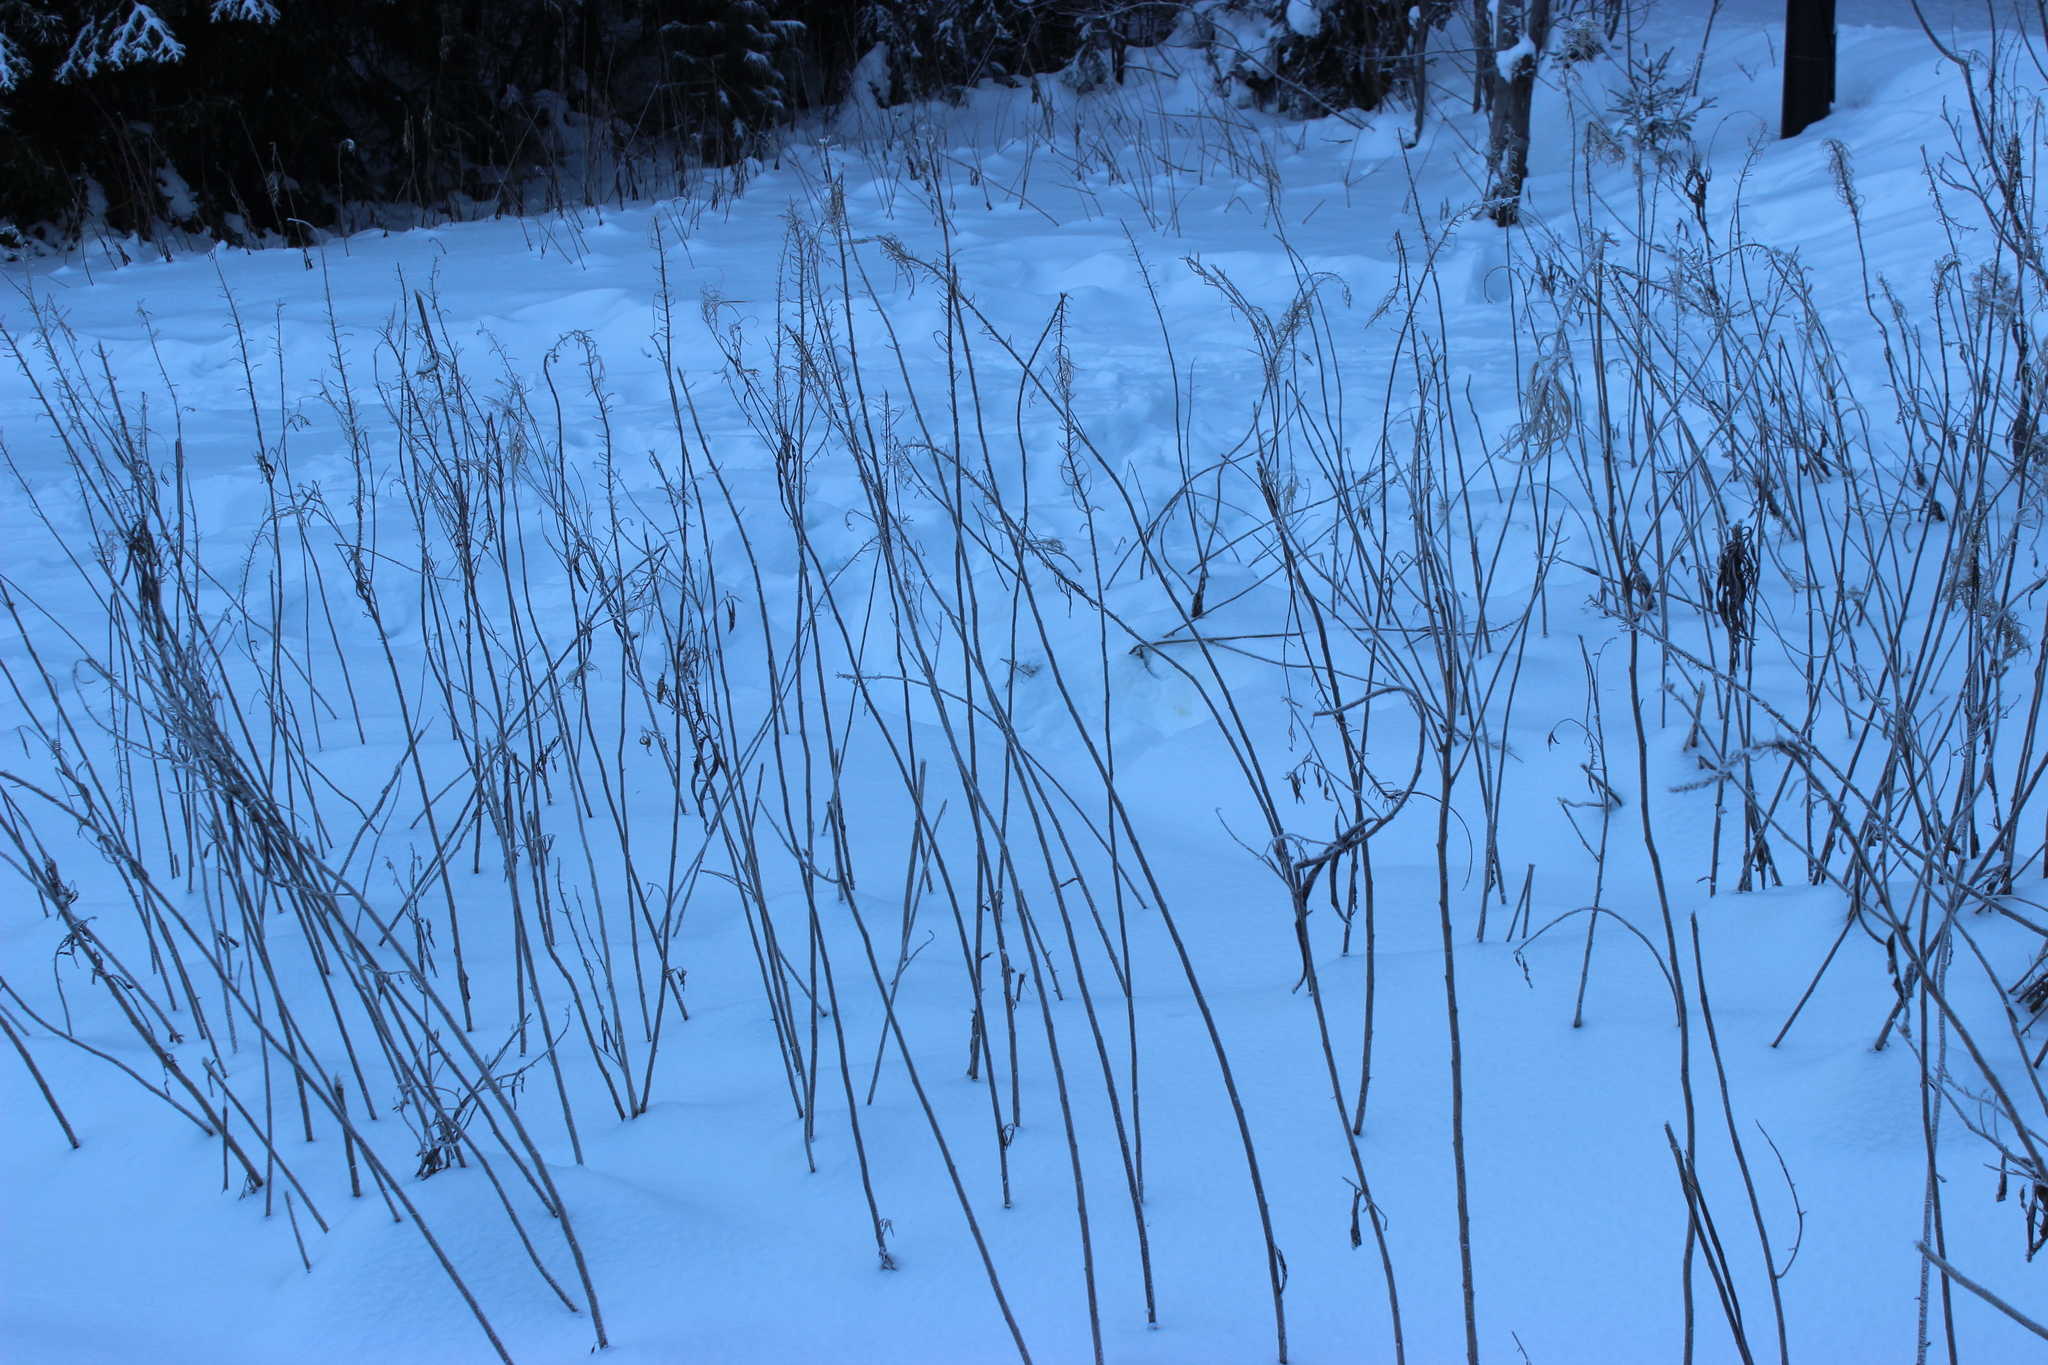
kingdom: Plantae
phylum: Tracheophyta
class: Magnoliopsida
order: Myrtales
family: Onagraceae
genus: Chamaenerion
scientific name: Chamaenerion angustifolium
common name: Fireweed
